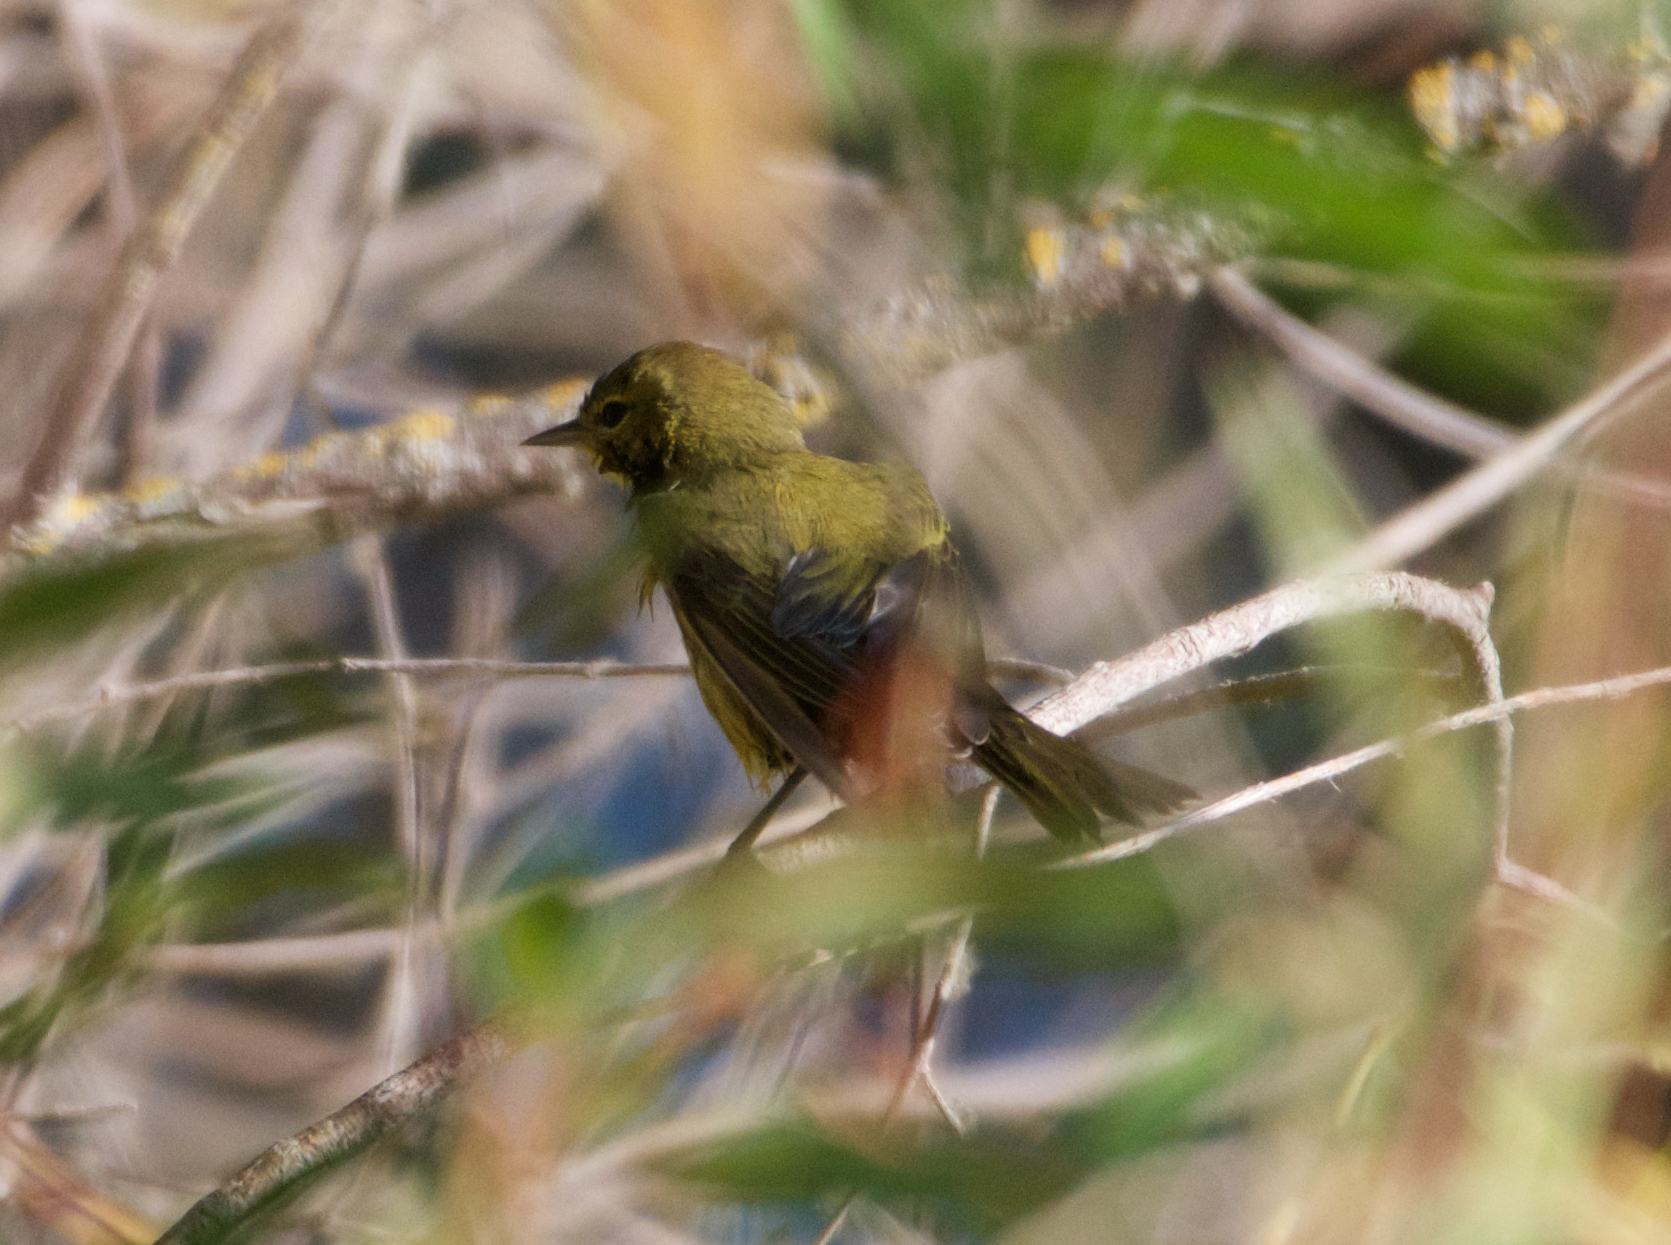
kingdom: Animalia
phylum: Chordata
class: Aves
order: Passeriformes
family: Parulidae
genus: Leiothlypis
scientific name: Leiothlypis celata
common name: Orange-crowned warbler
